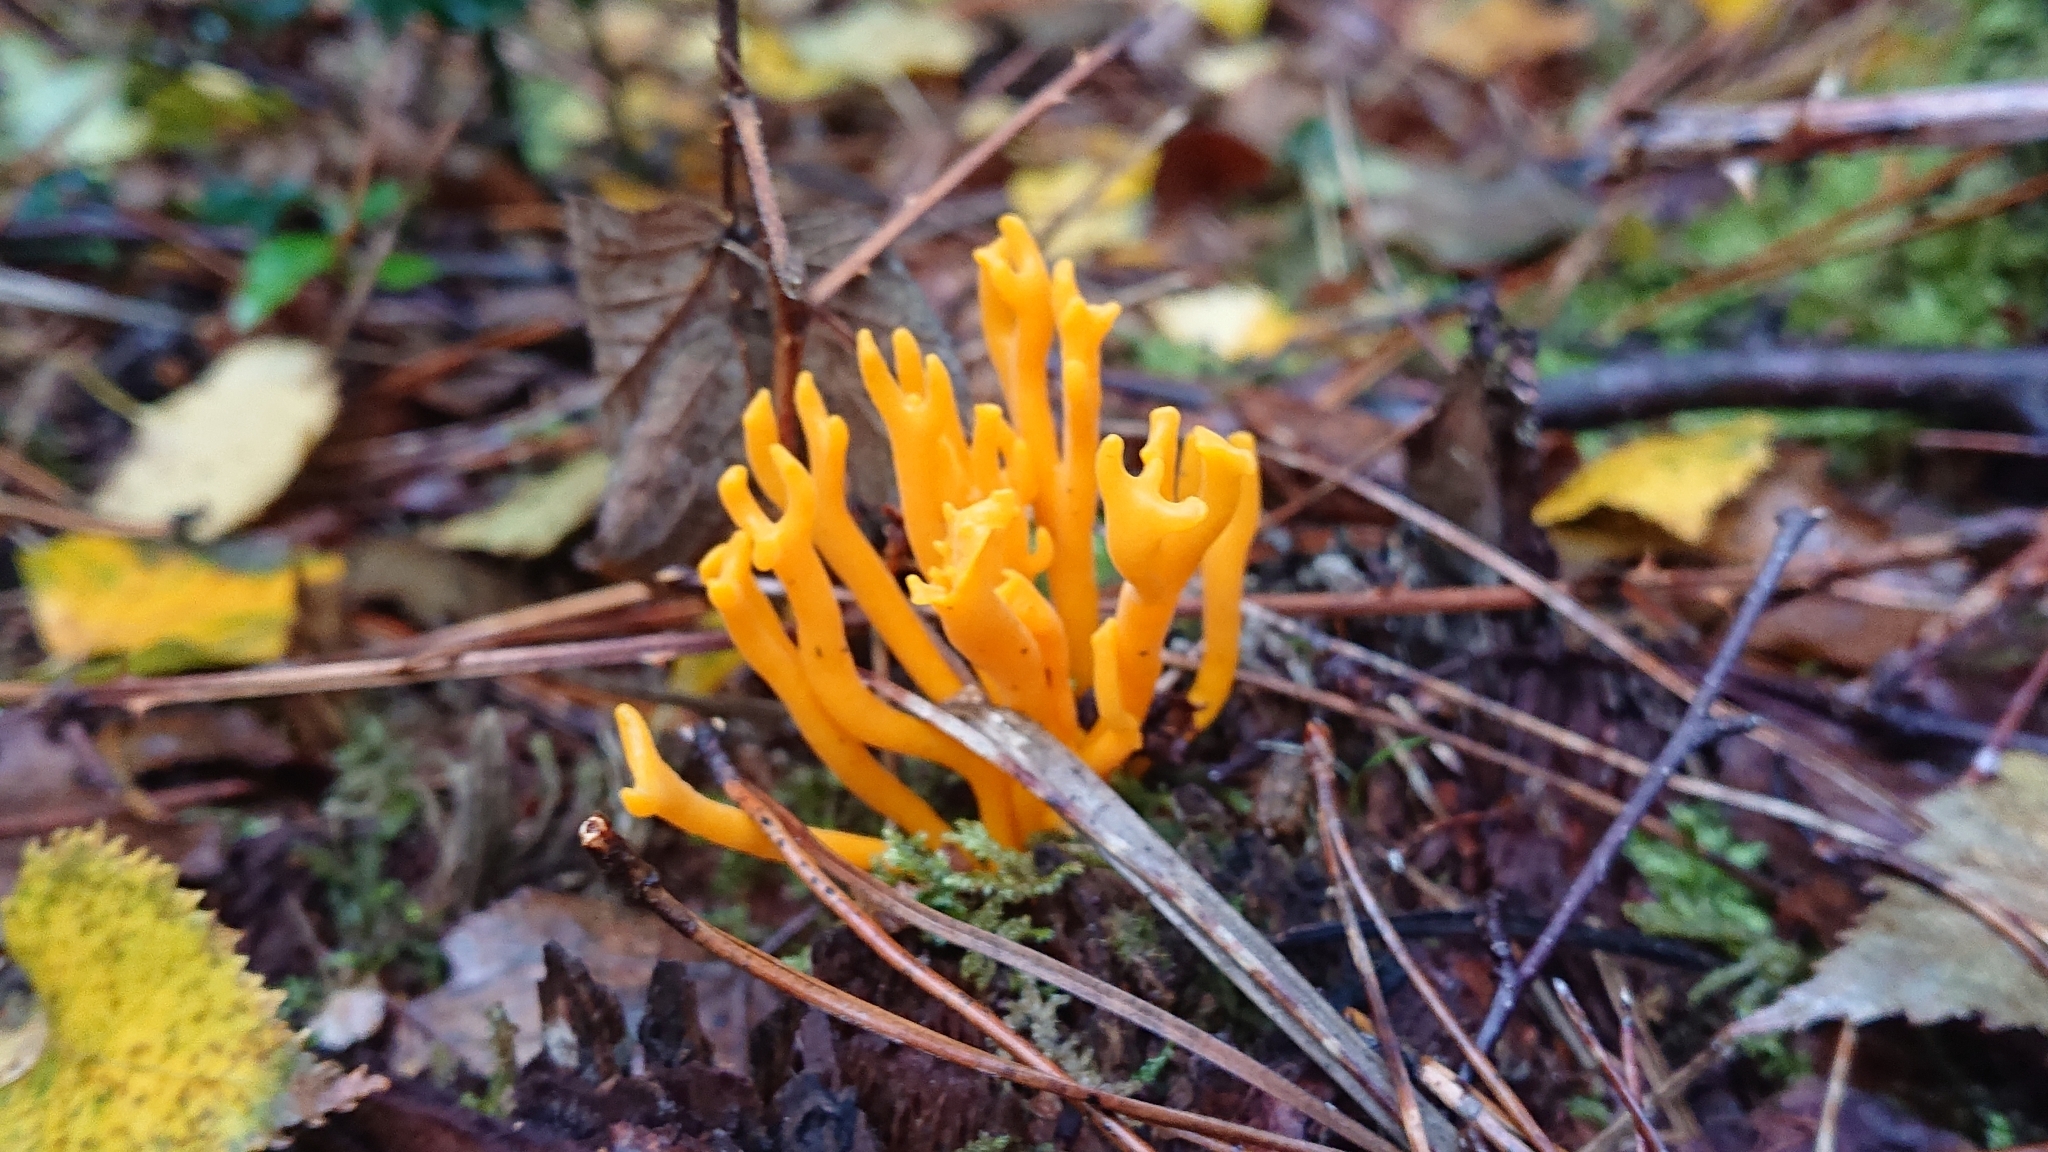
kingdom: Fungi
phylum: Basidiomycota
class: Dacrymycetes
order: Dacrymycetales
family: Dacrymycetaceae
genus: Calocera
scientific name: Calocera viscosa
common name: Yellow stagshorn
